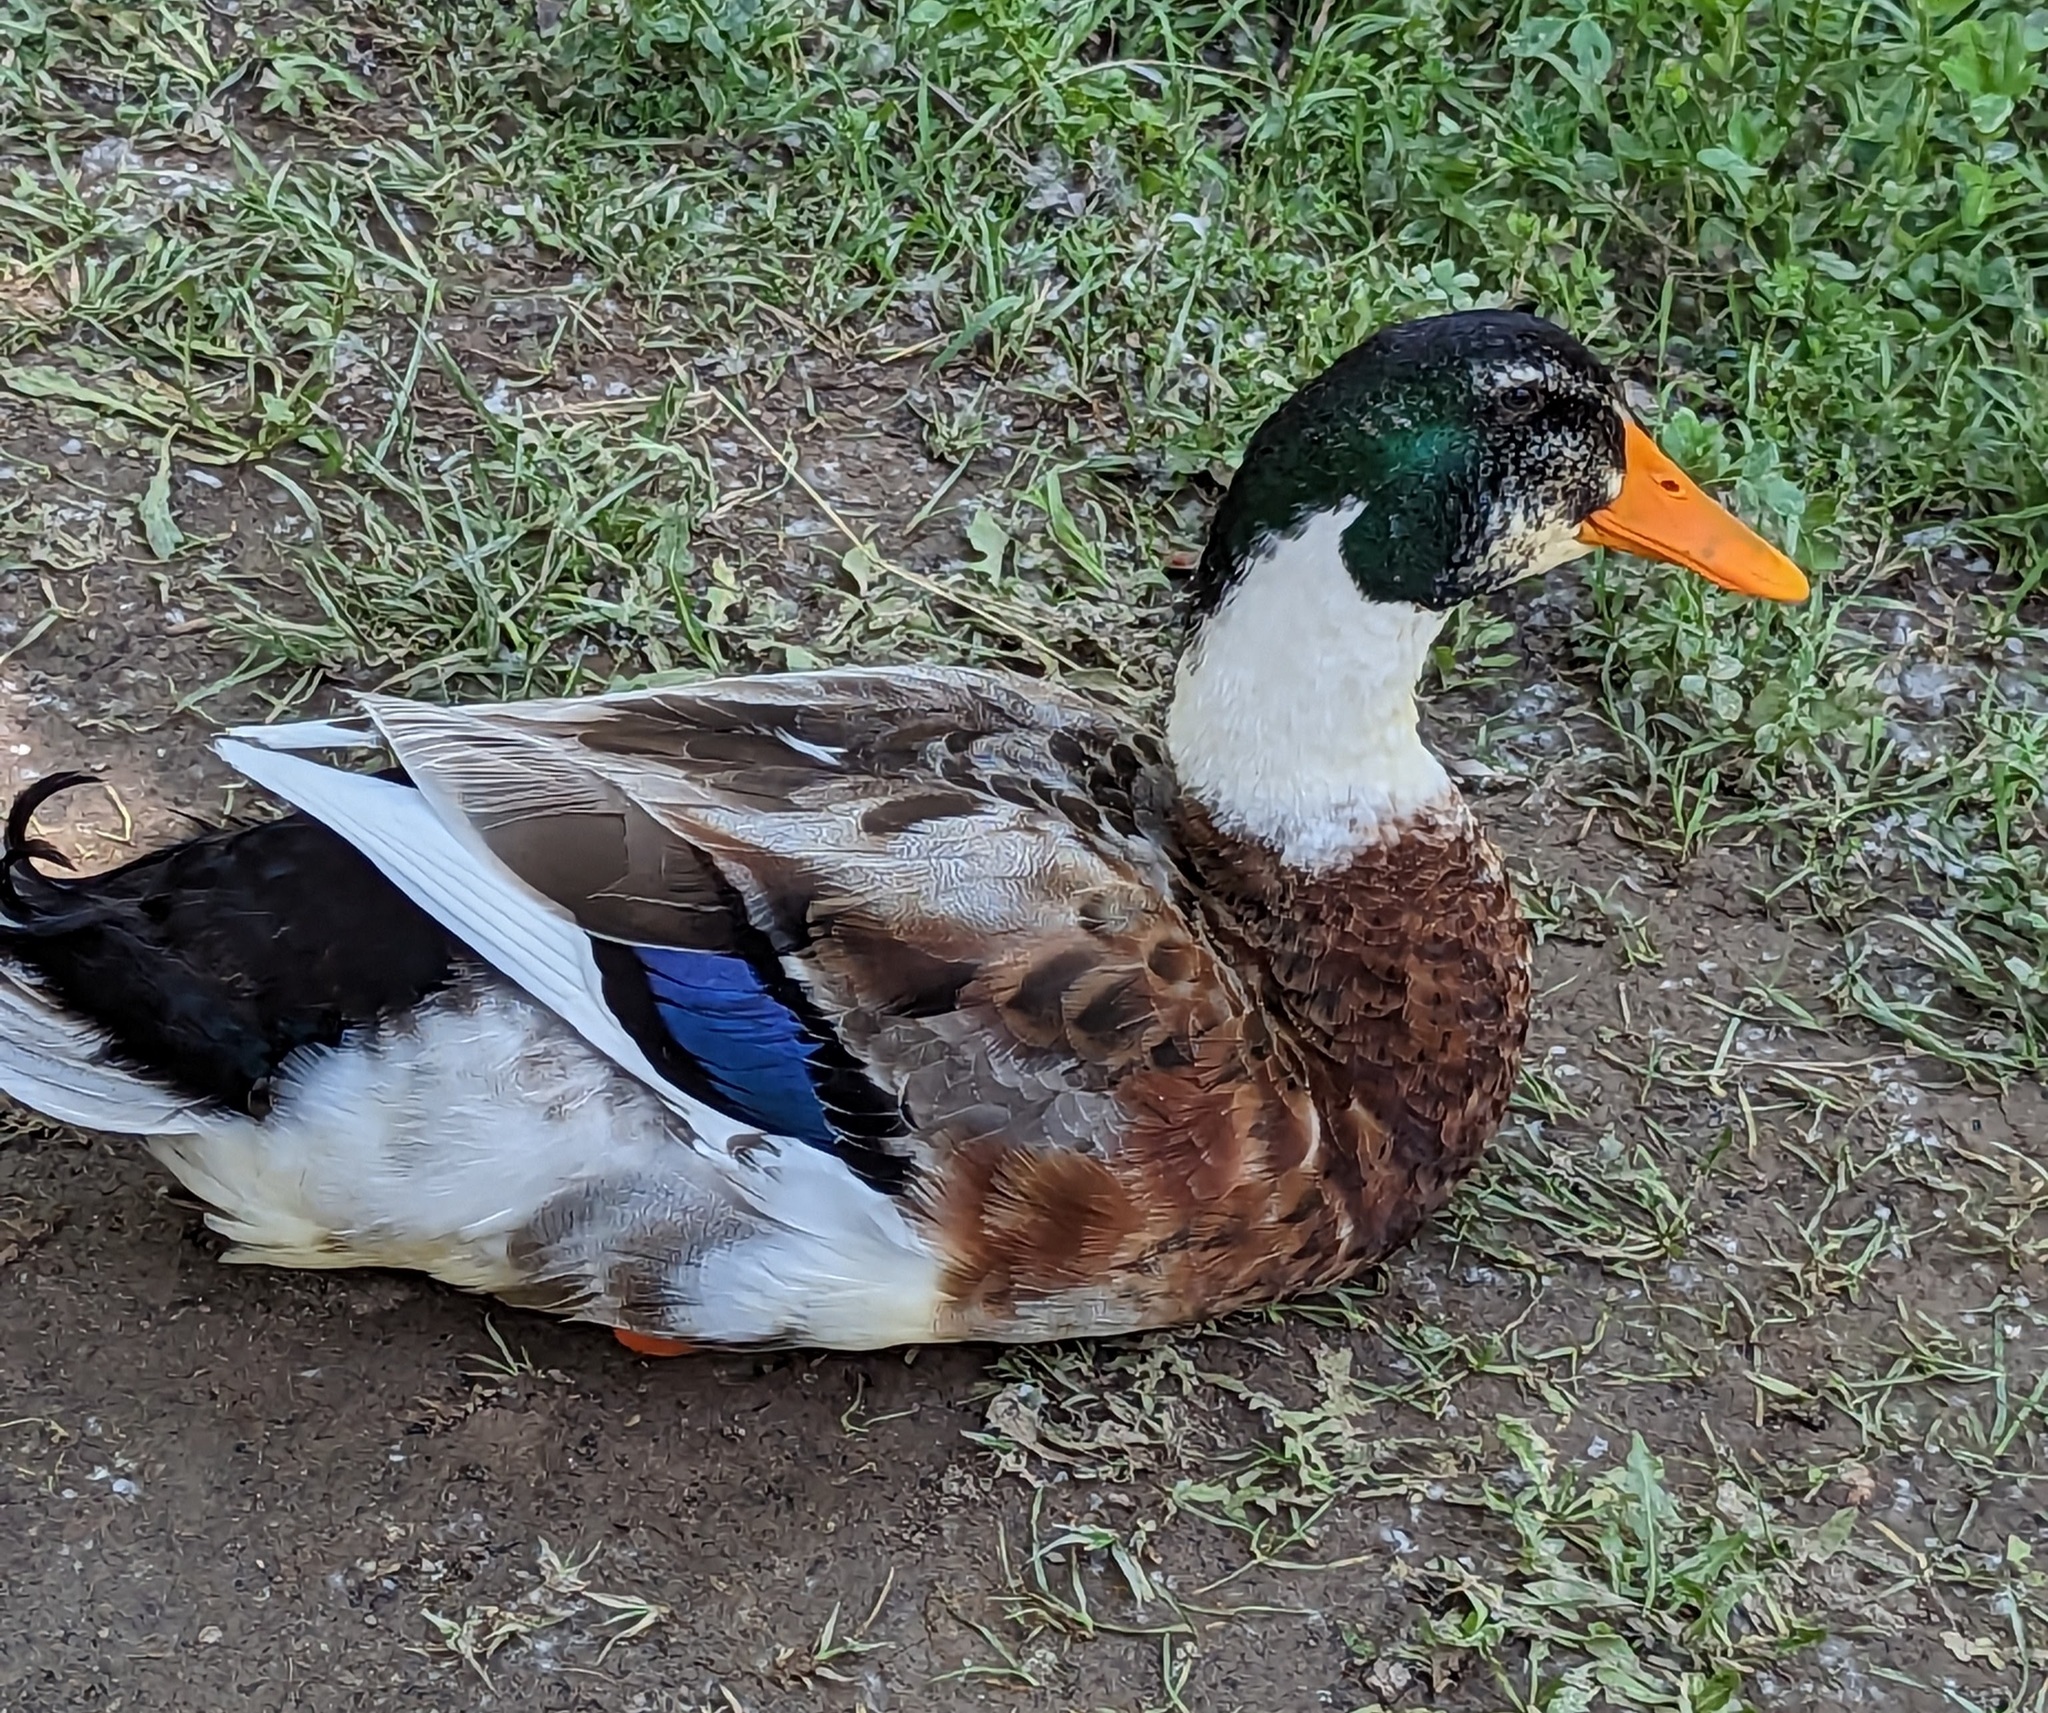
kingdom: Animalia
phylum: Chordata
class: Aves
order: Anseriformes
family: Anatidae
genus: Anas
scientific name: Anas platyrhynchos
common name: Mallard
